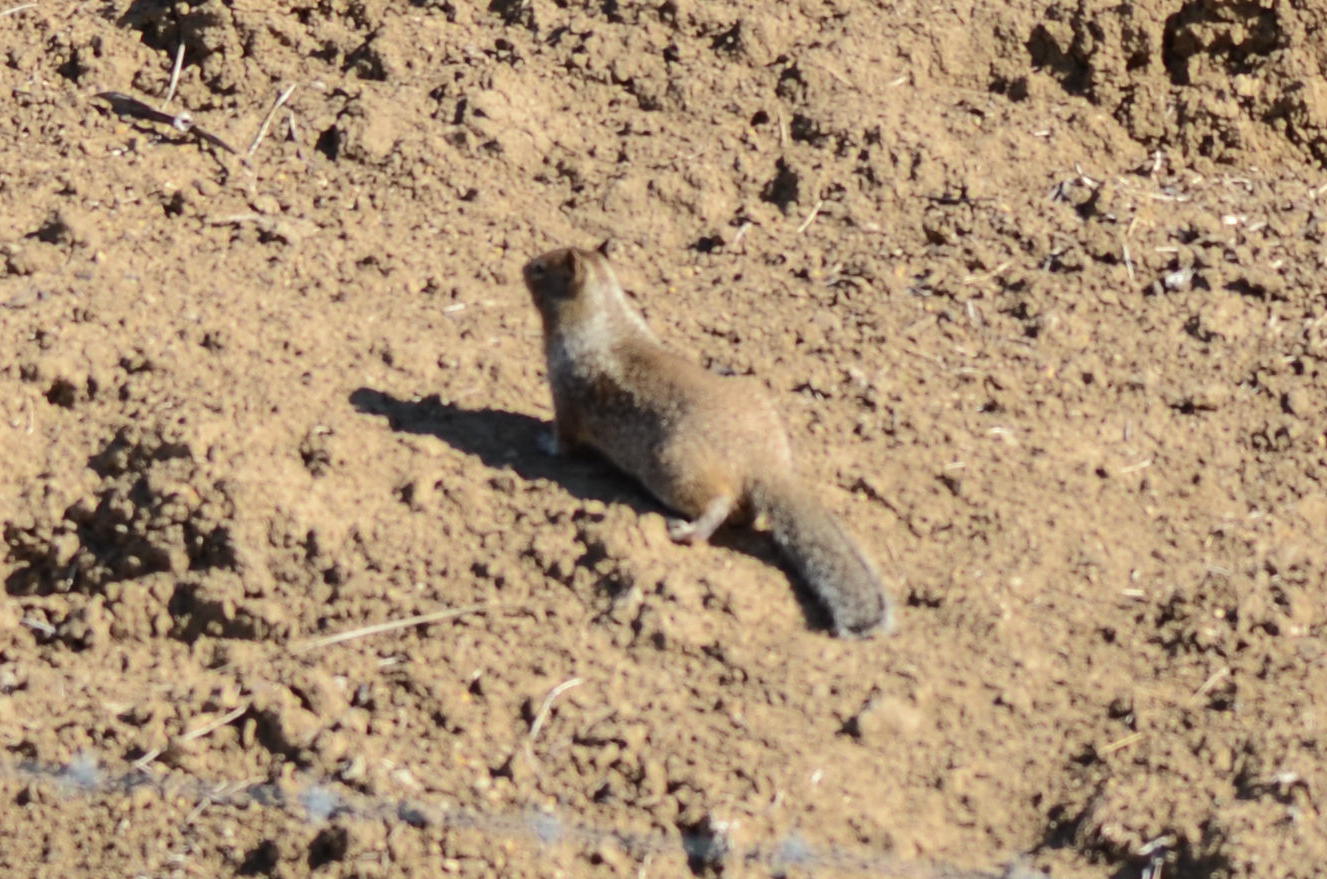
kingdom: Animalia
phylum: Chordata
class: Mammalia
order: Rodentia
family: Sciuridae
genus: Otospermophilus
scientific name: Otospermophilus beecheyi
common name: California ground squirrel
